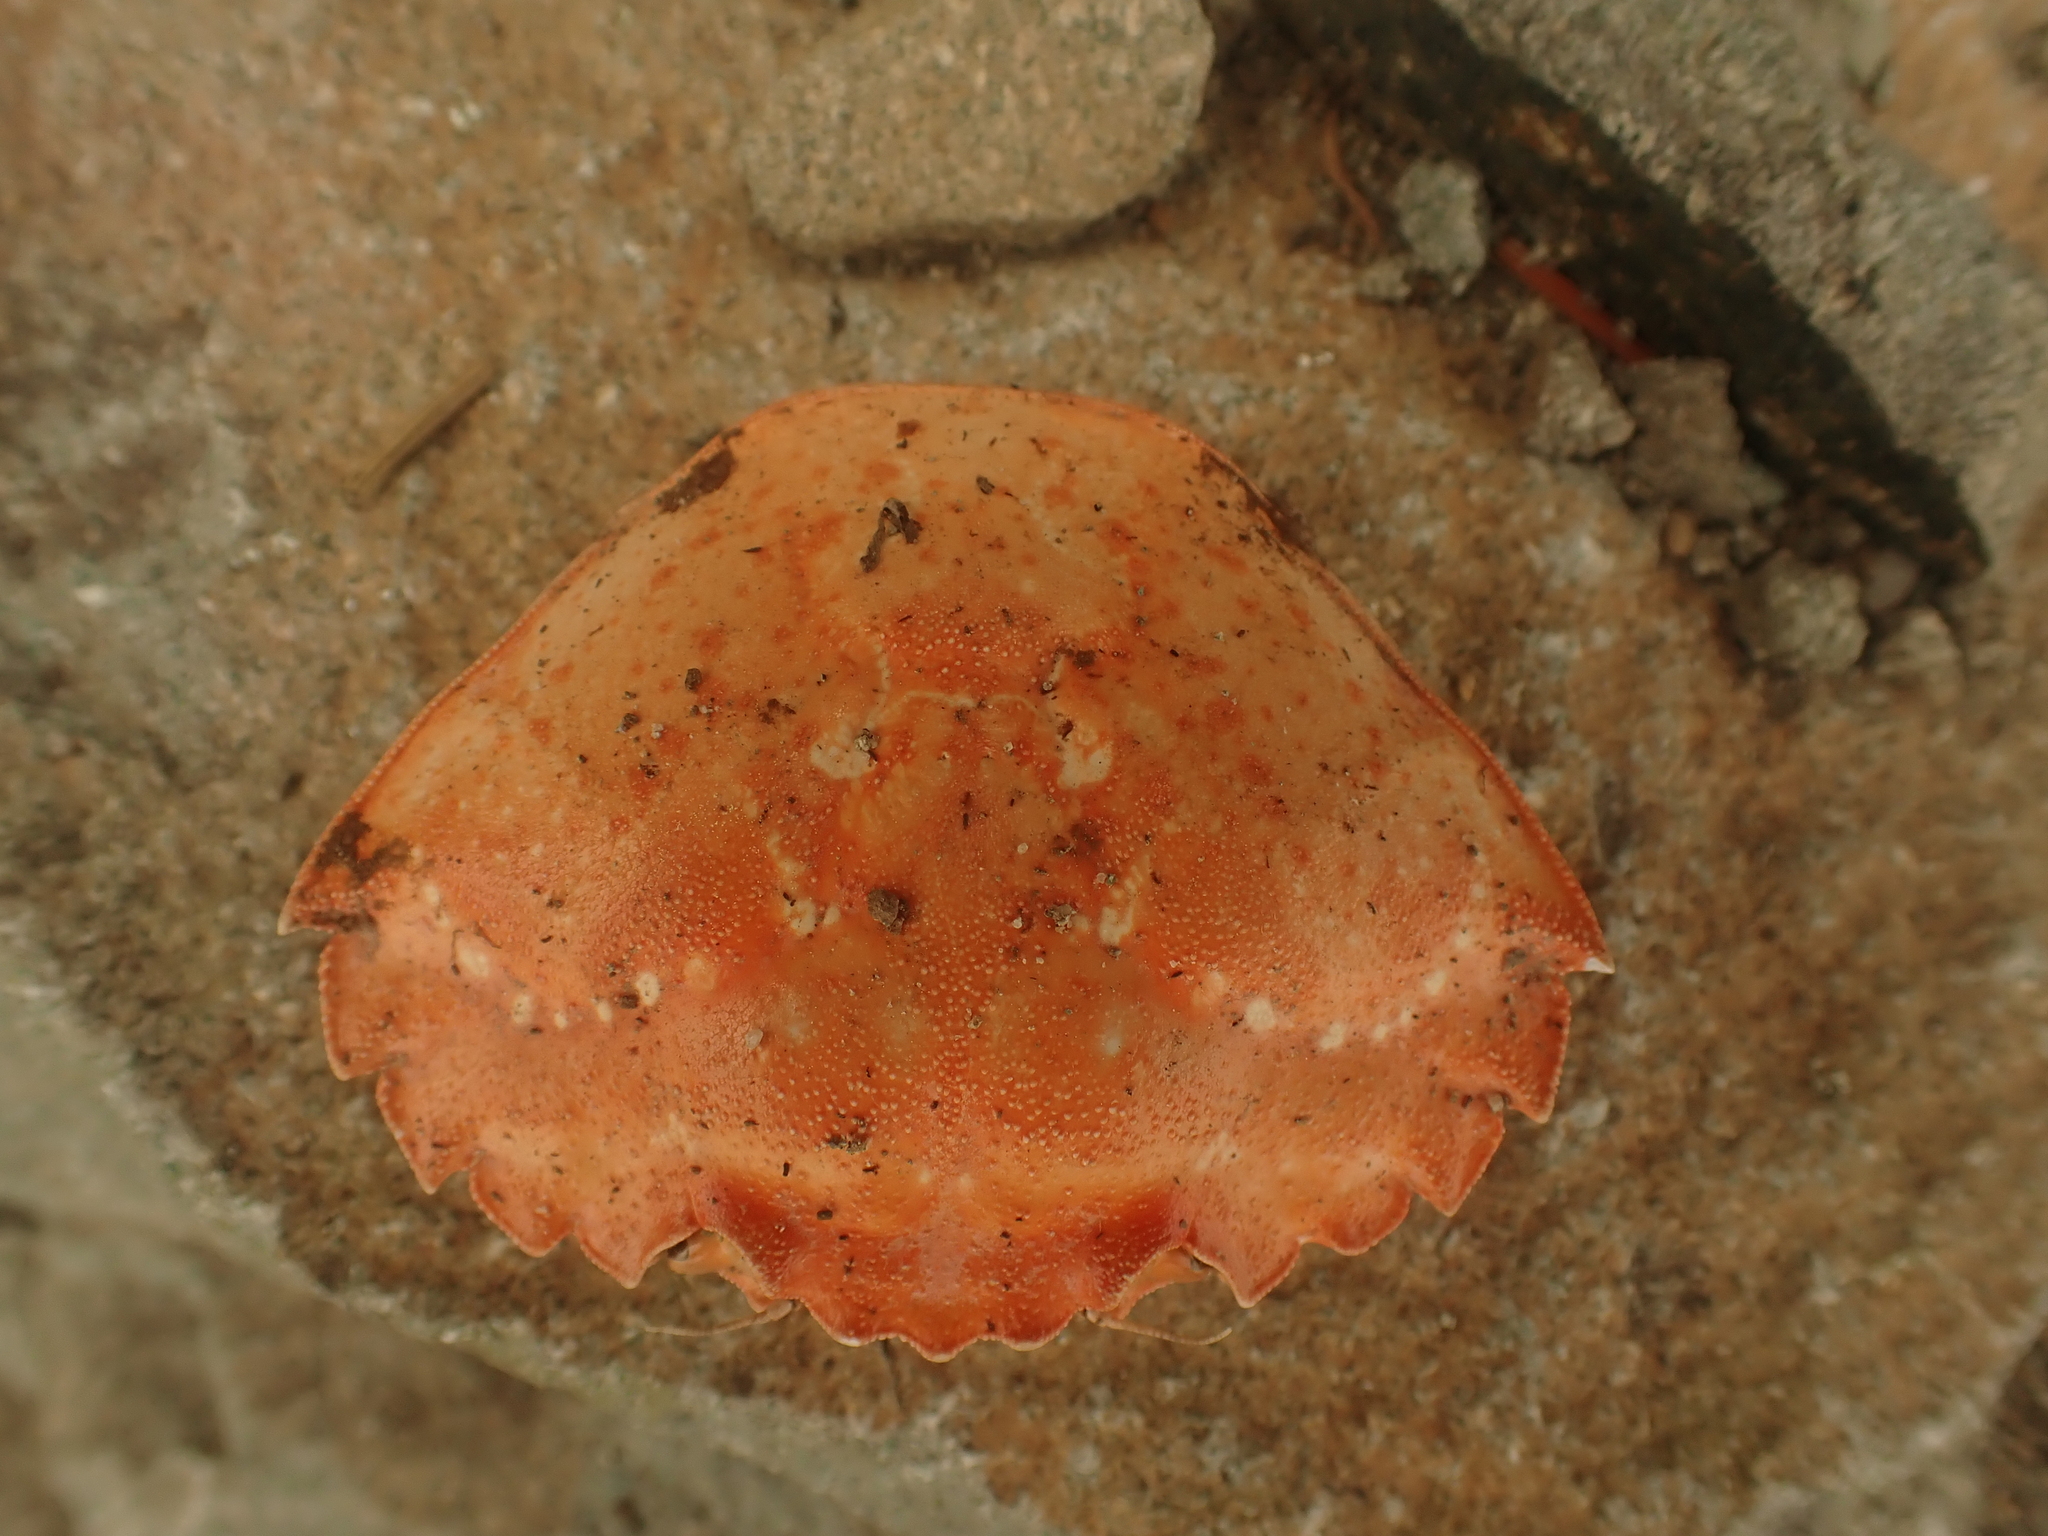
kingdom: Animalia
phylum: Arthropoda
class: Malacostraca
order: Decapoda
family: Carcinidae
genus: Carcinus
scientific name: Carcinus maenas
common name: European green crab
